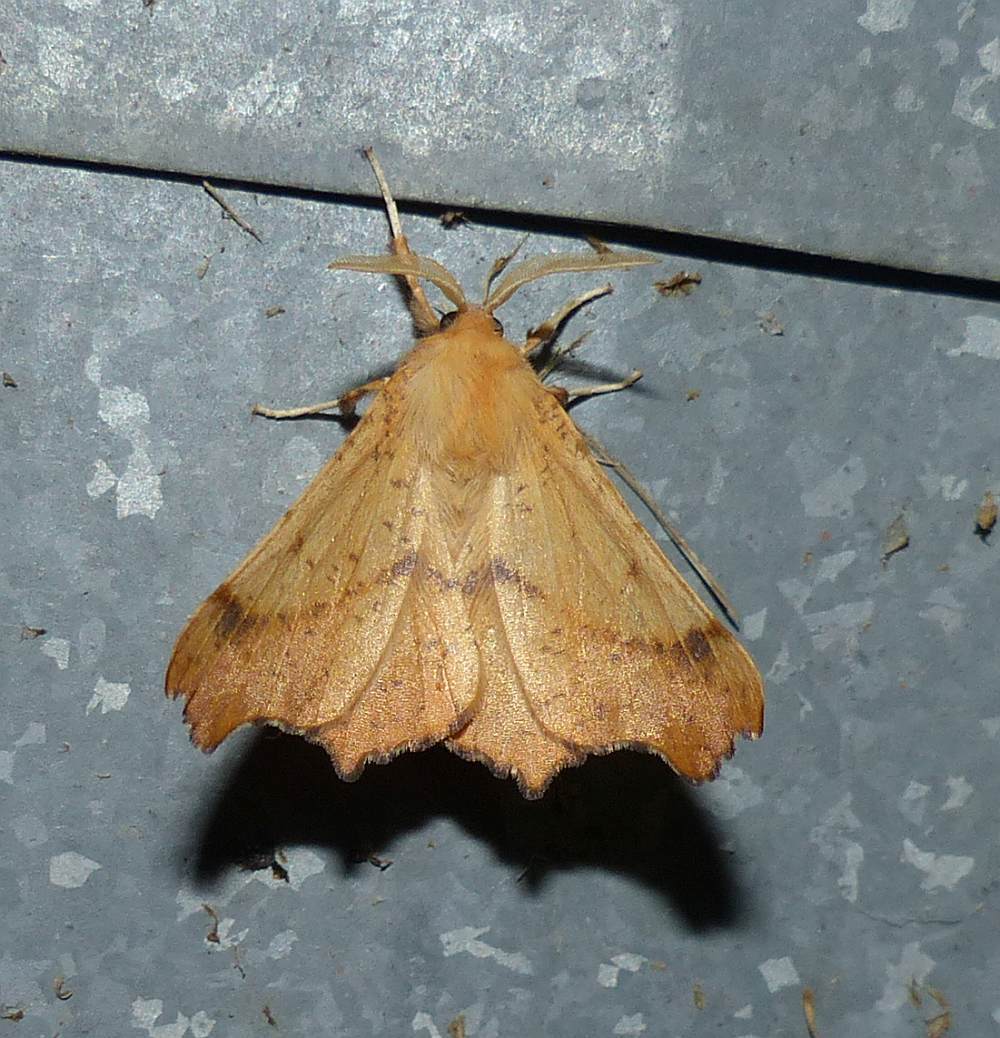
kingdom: Animalia
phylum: Arthropoda
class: Insecta
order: Lepidoptera
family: Geometridae
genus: Ennomos
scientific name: Ennomos magnaria
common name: Maple spanworm
